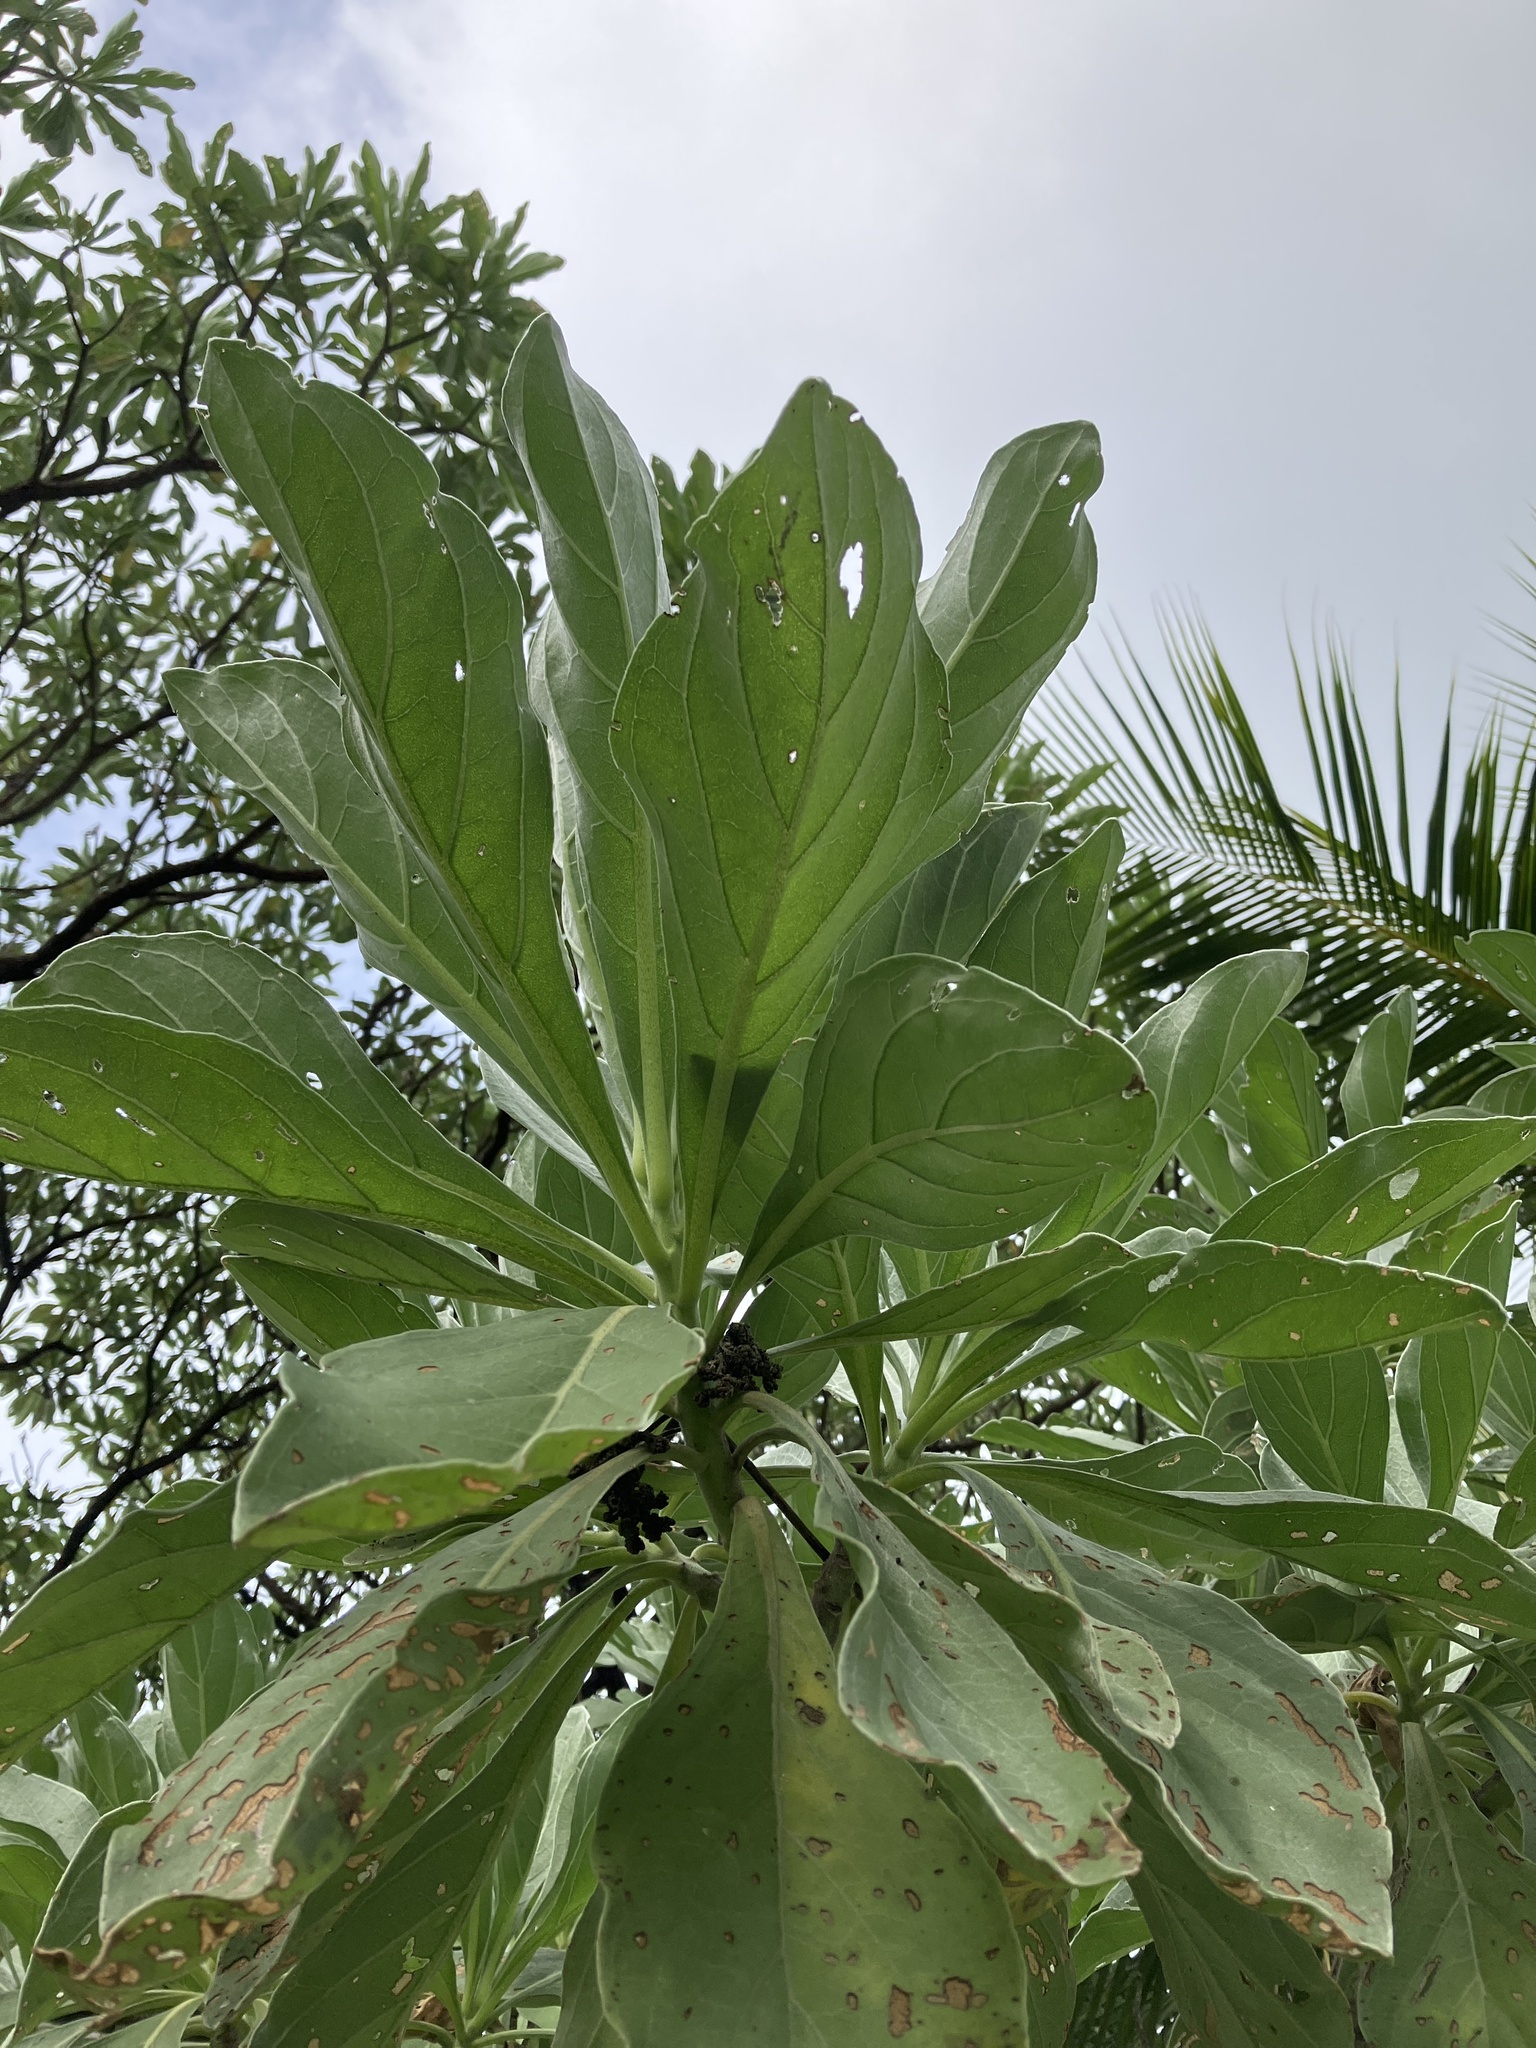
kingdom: Plantae
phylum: Tracheophyta
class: Magnoliopsida
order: Boraginales
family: Heliotropiaceae
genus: Heliotropium
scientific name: Heliotropium velutinum
